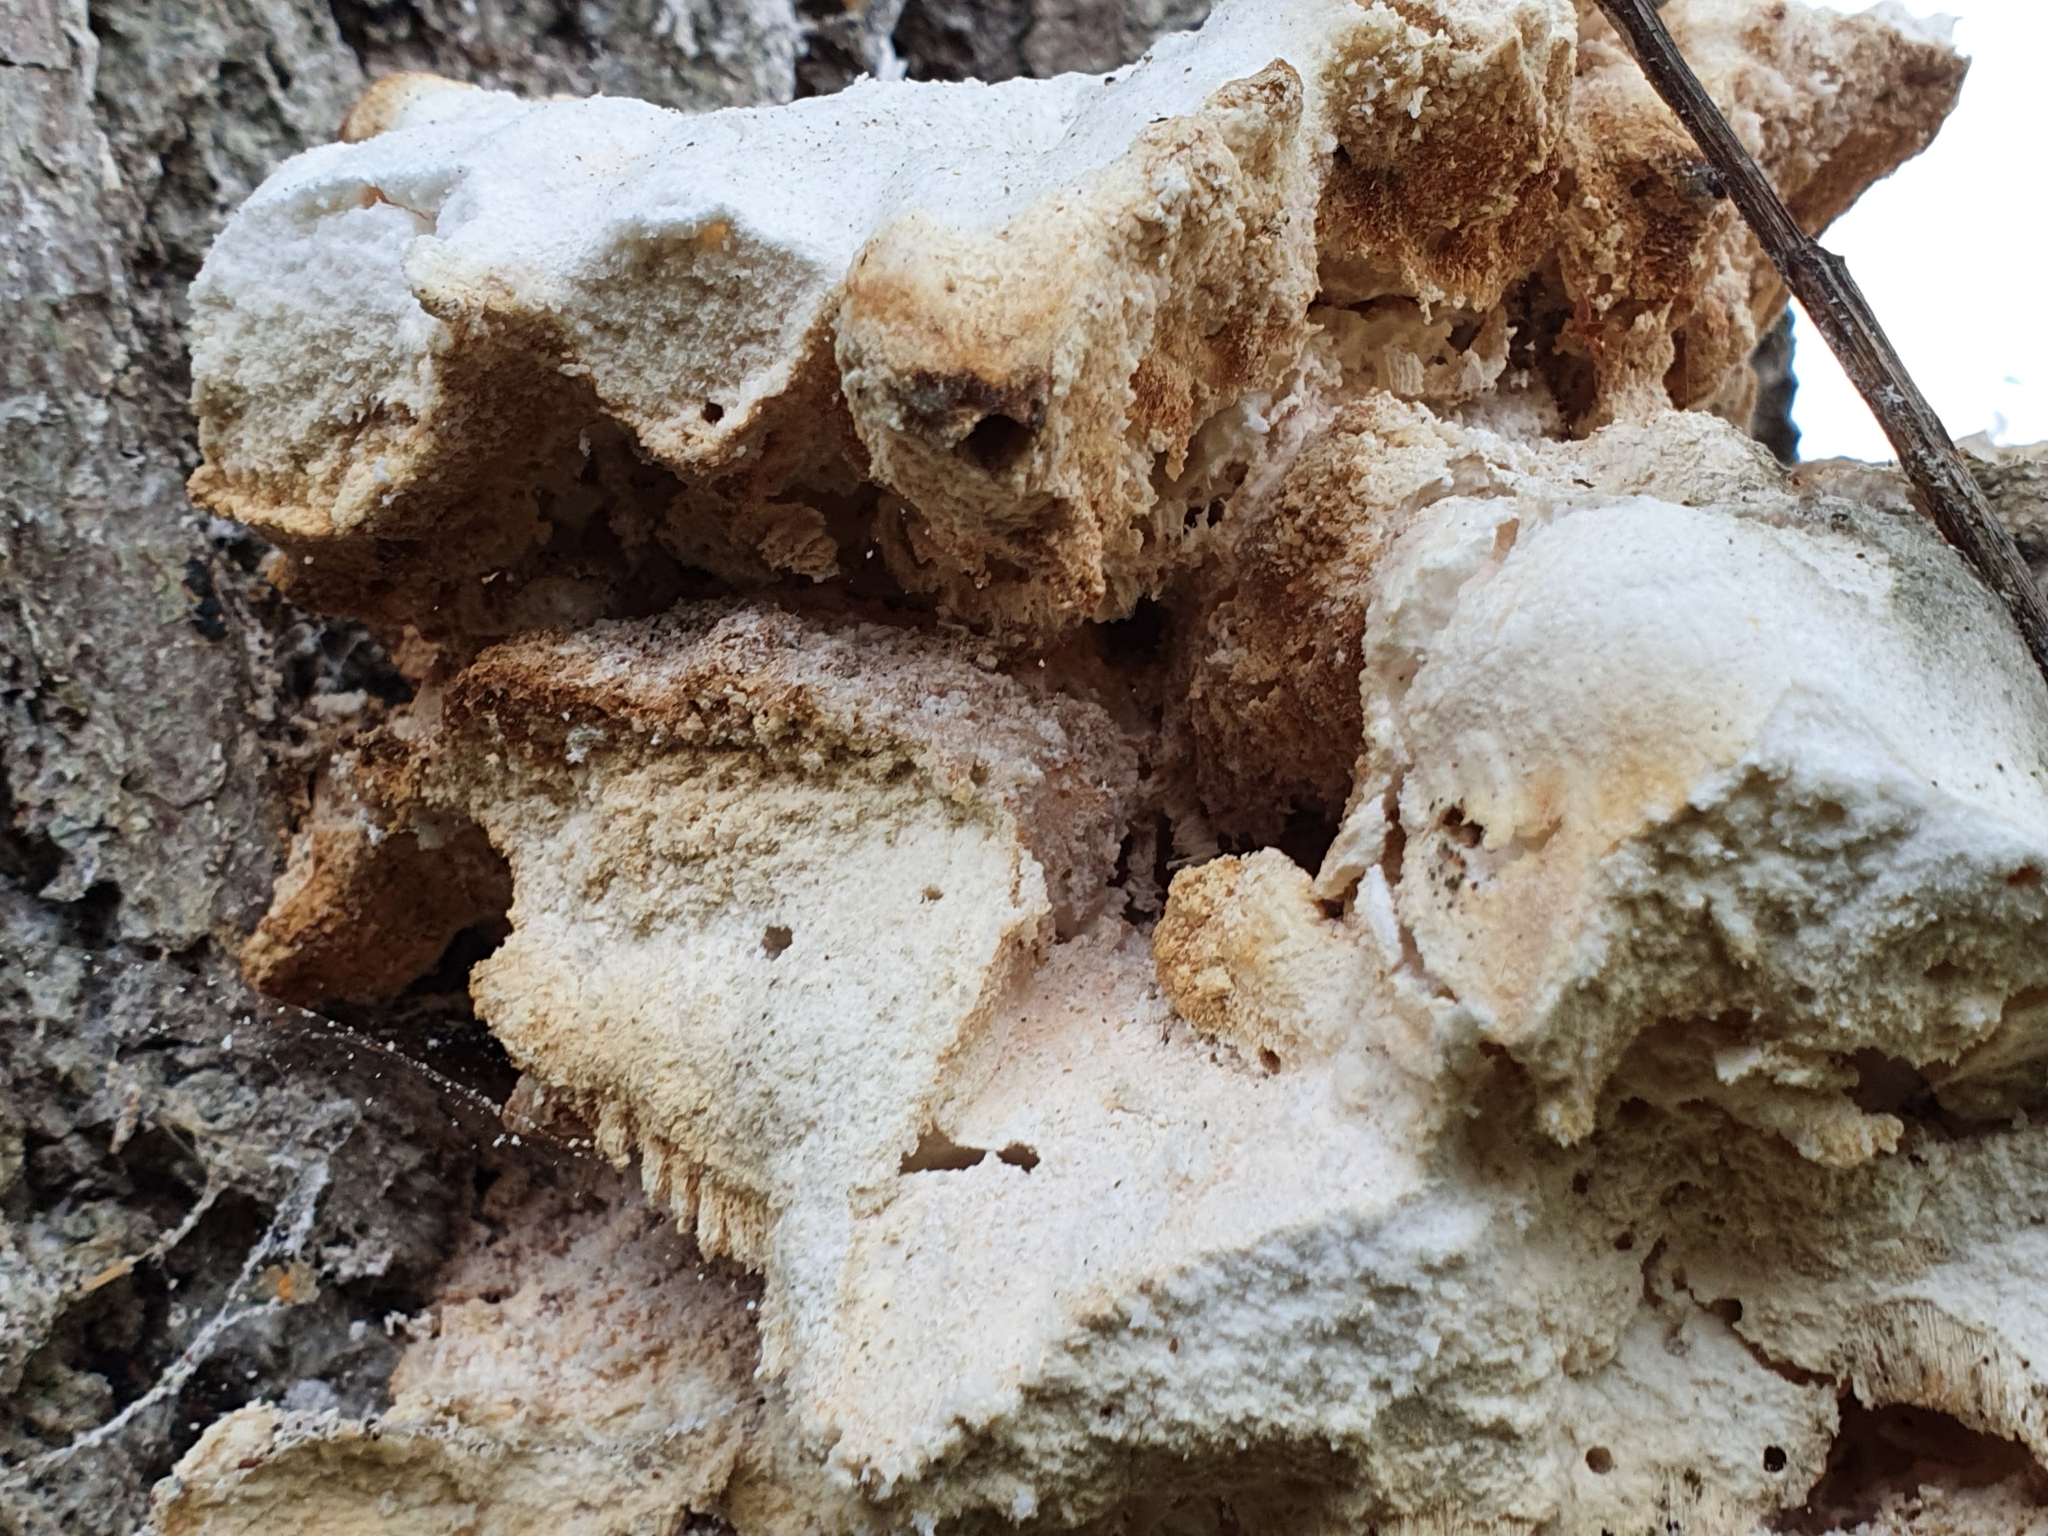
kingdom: Fungi
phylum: Basidiomycota
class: Agaricomycetes
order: Polyporales
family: Laetiporaceae
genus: Laetiporus
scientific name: Laetiporus sulphureus
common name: Chicken of the woods
